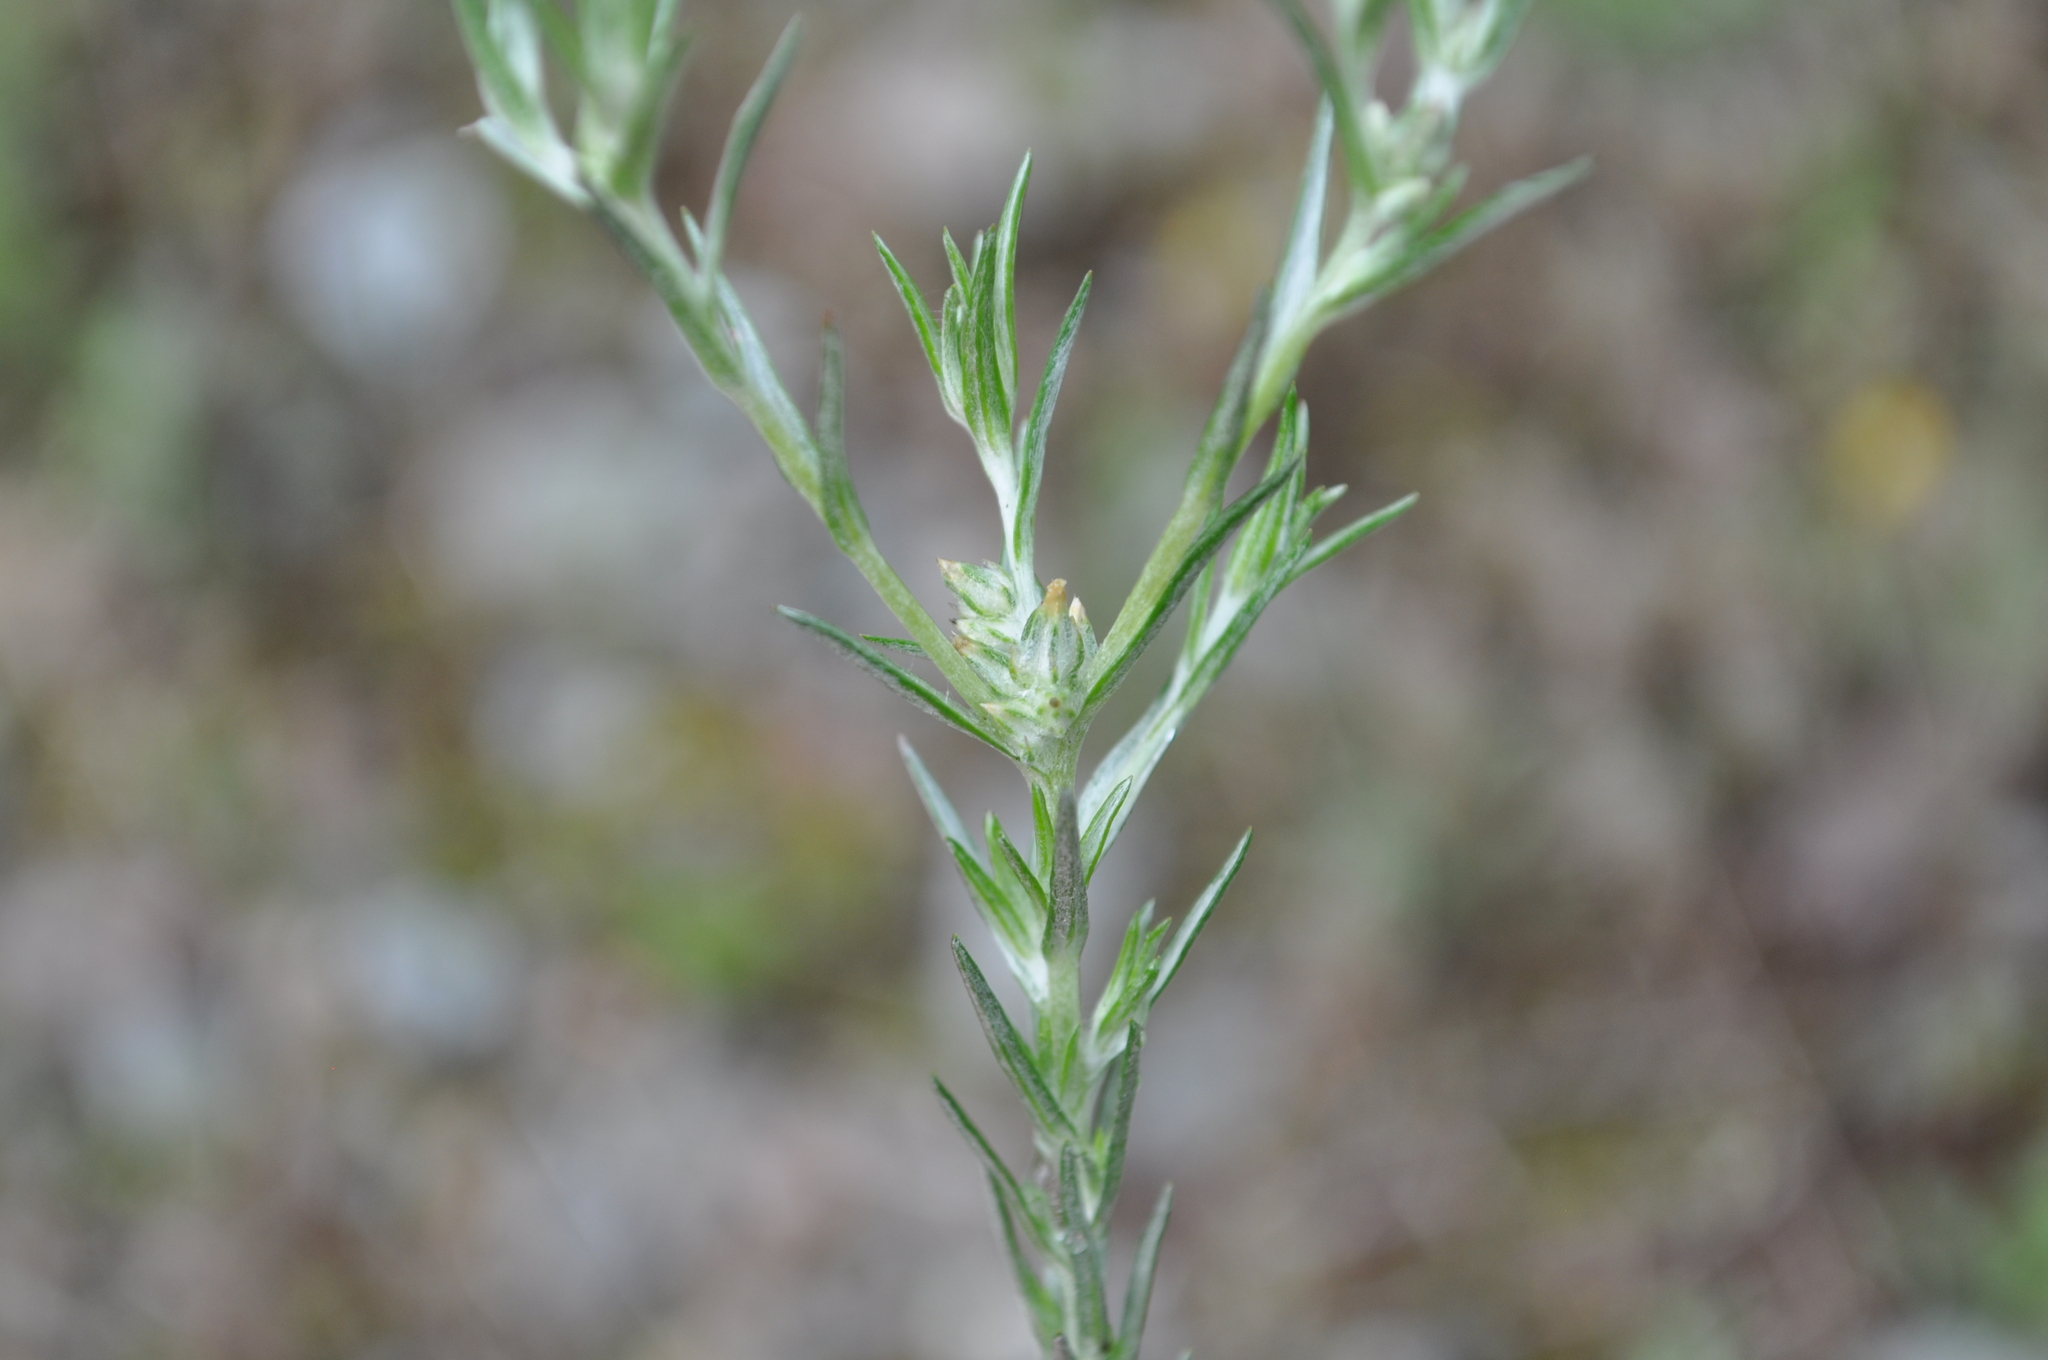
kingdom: Plantae
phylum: Tracheophyta
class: Magnoliopsida
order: Asterales
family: Asteraceae
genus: Logfia
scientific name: Logfia gallica
